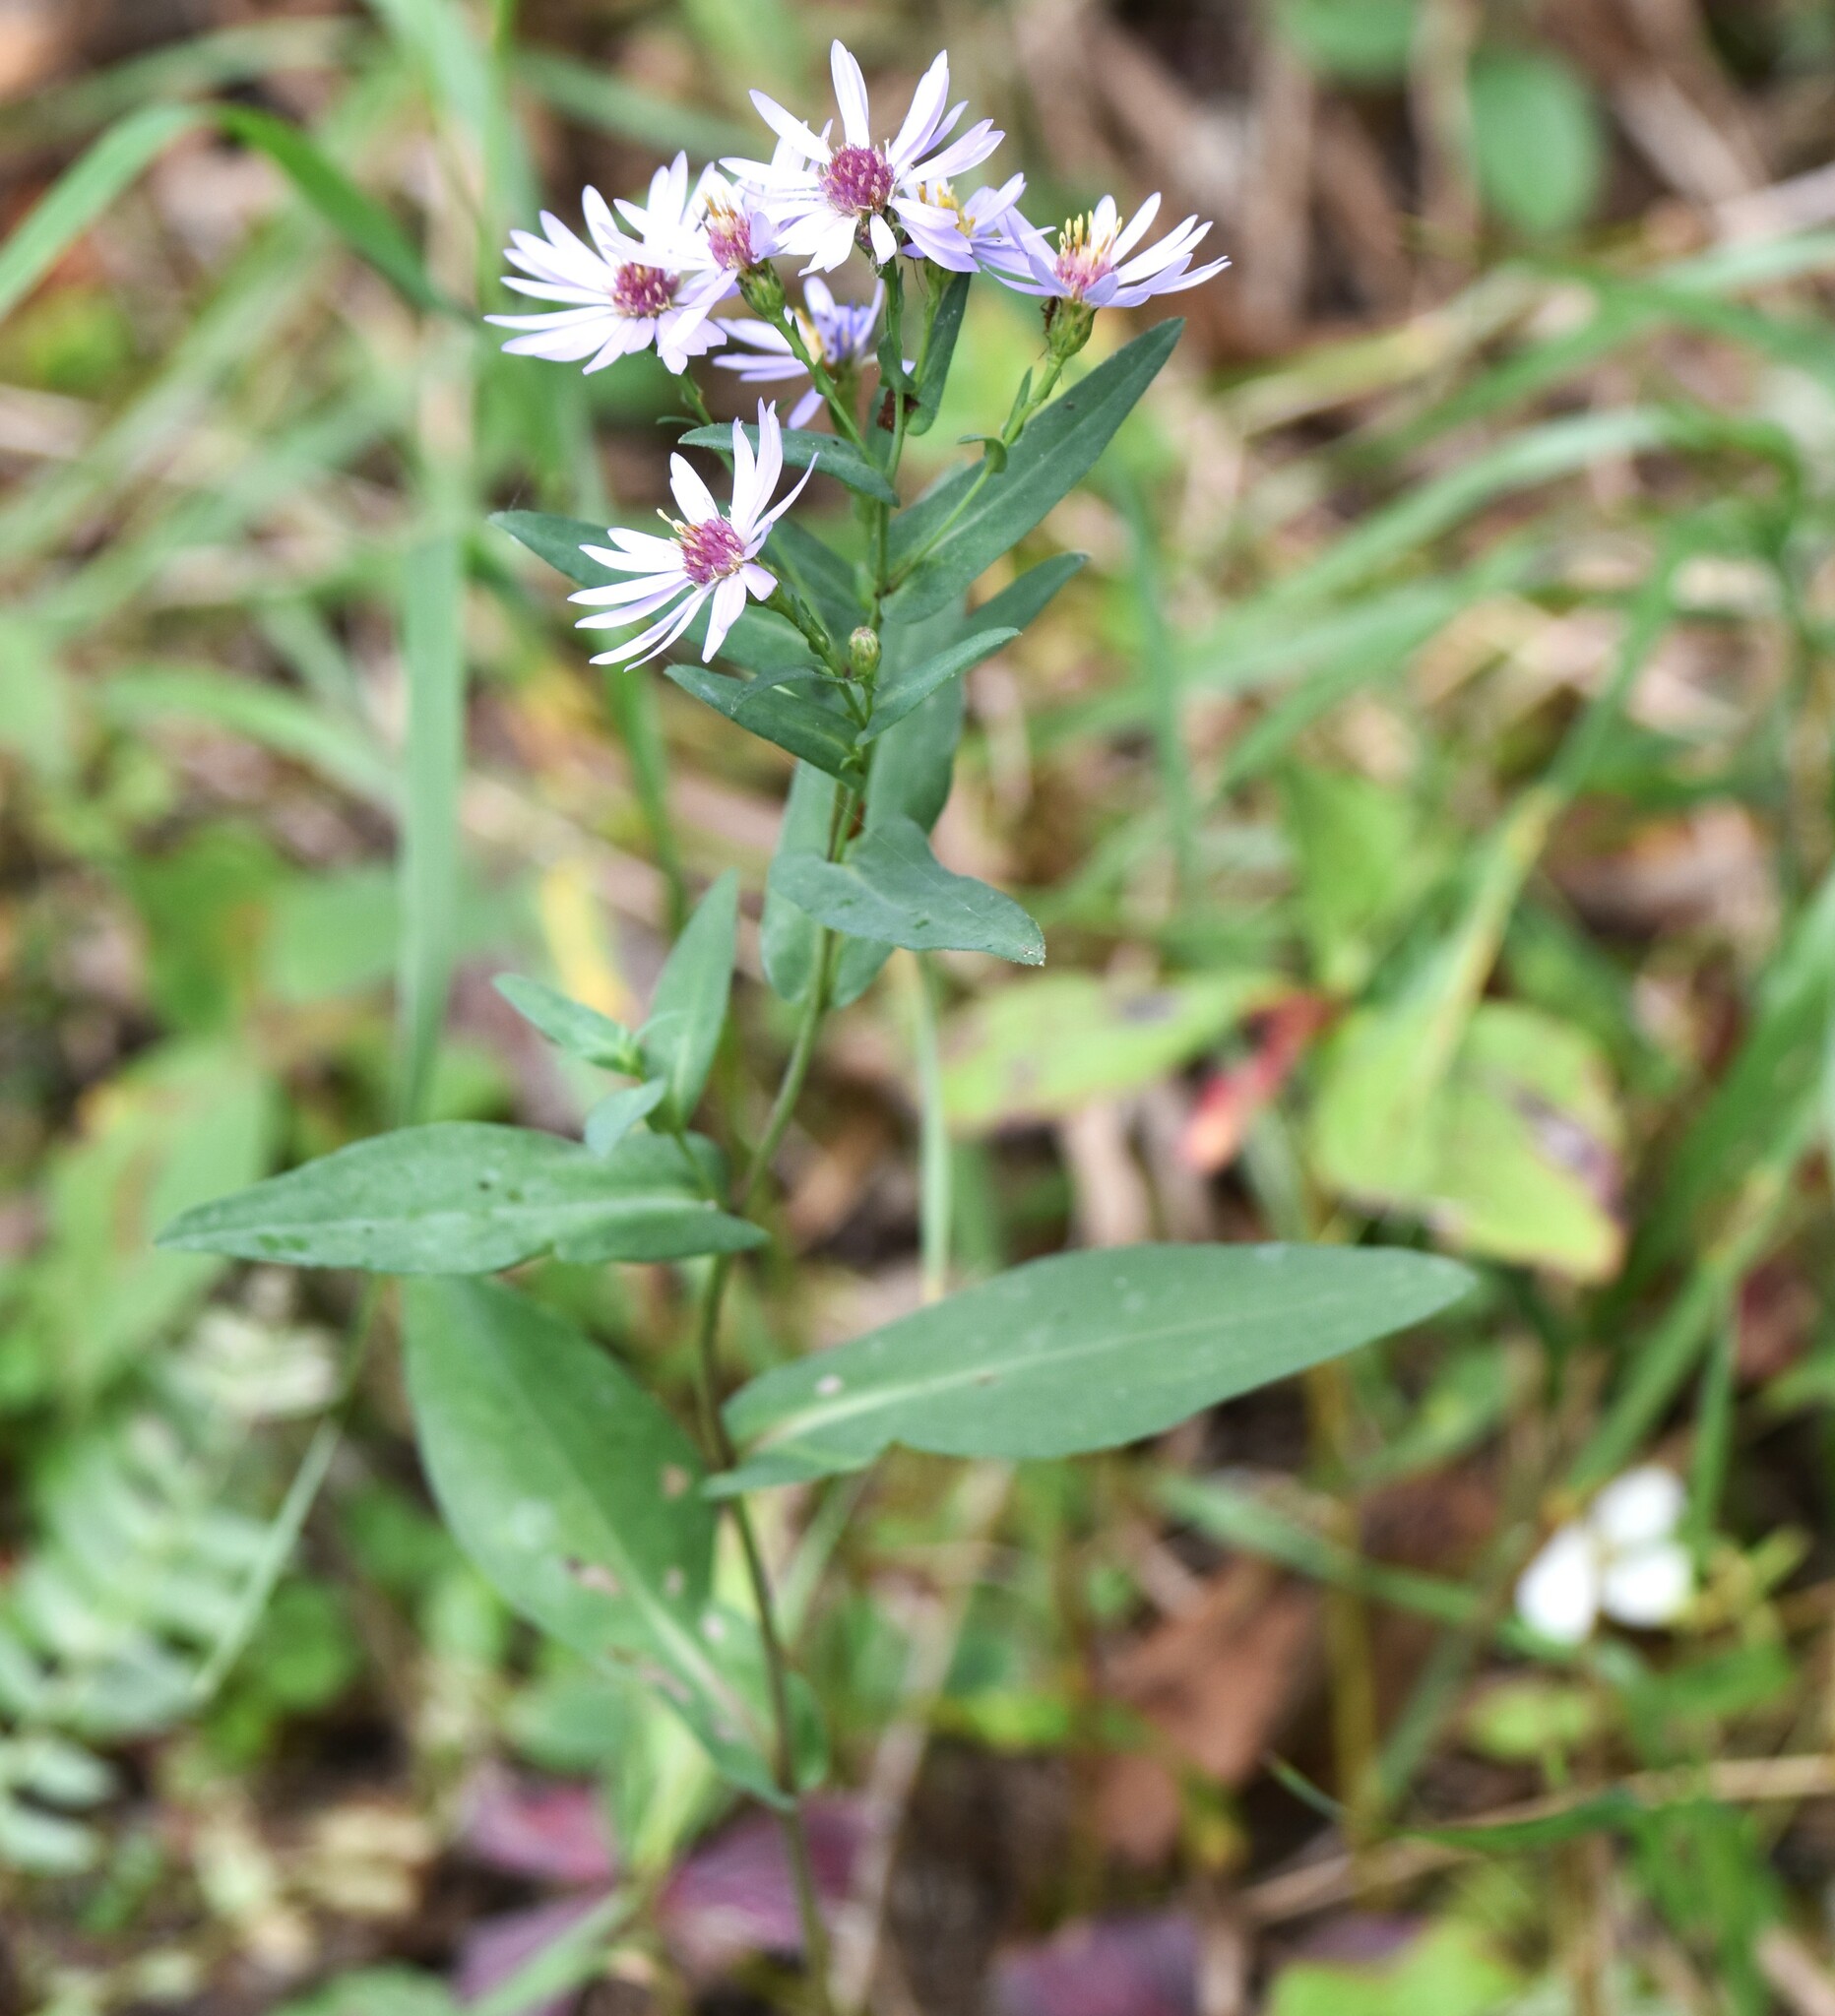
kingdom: Plantae
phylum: Tracheophyta
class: Magnoliopsida
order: Asterales
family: Asteraceae
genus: Symphyotrichum
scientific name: Symphyotrichum laeve
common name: Glaucous aster
